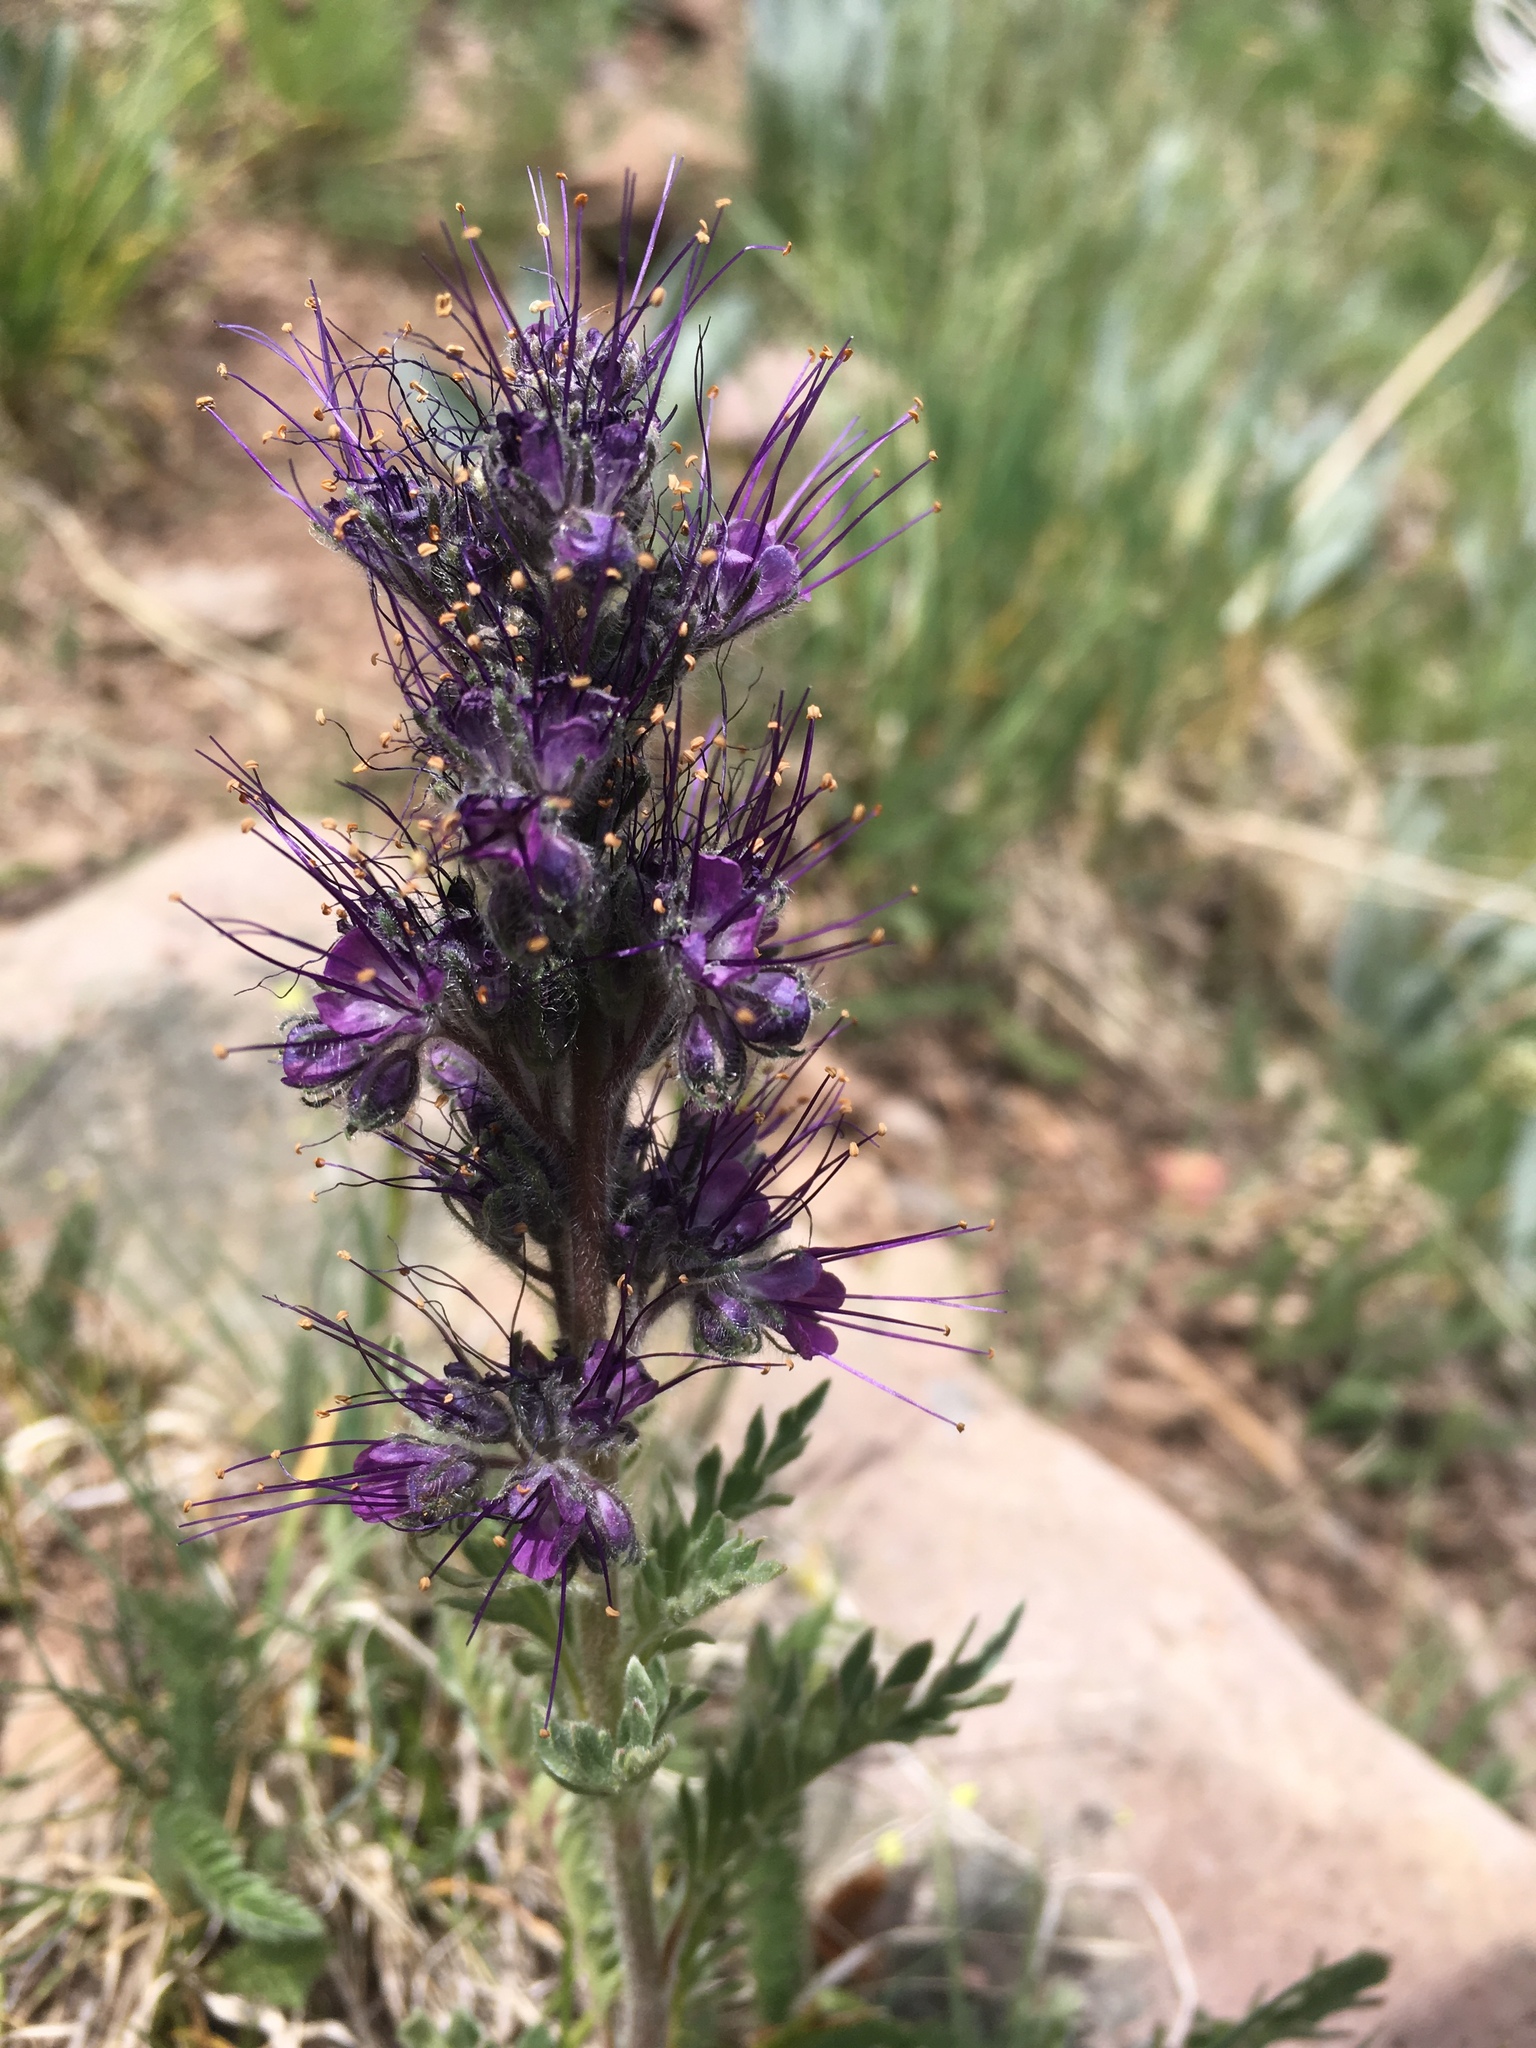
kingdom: Plantae
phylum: Tracheophyta
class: Magnoliopsida
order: Boraginales
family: Hydrophyllaceae
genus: Phacelia
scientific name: Phacelia sericea
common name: Silky phacelia
